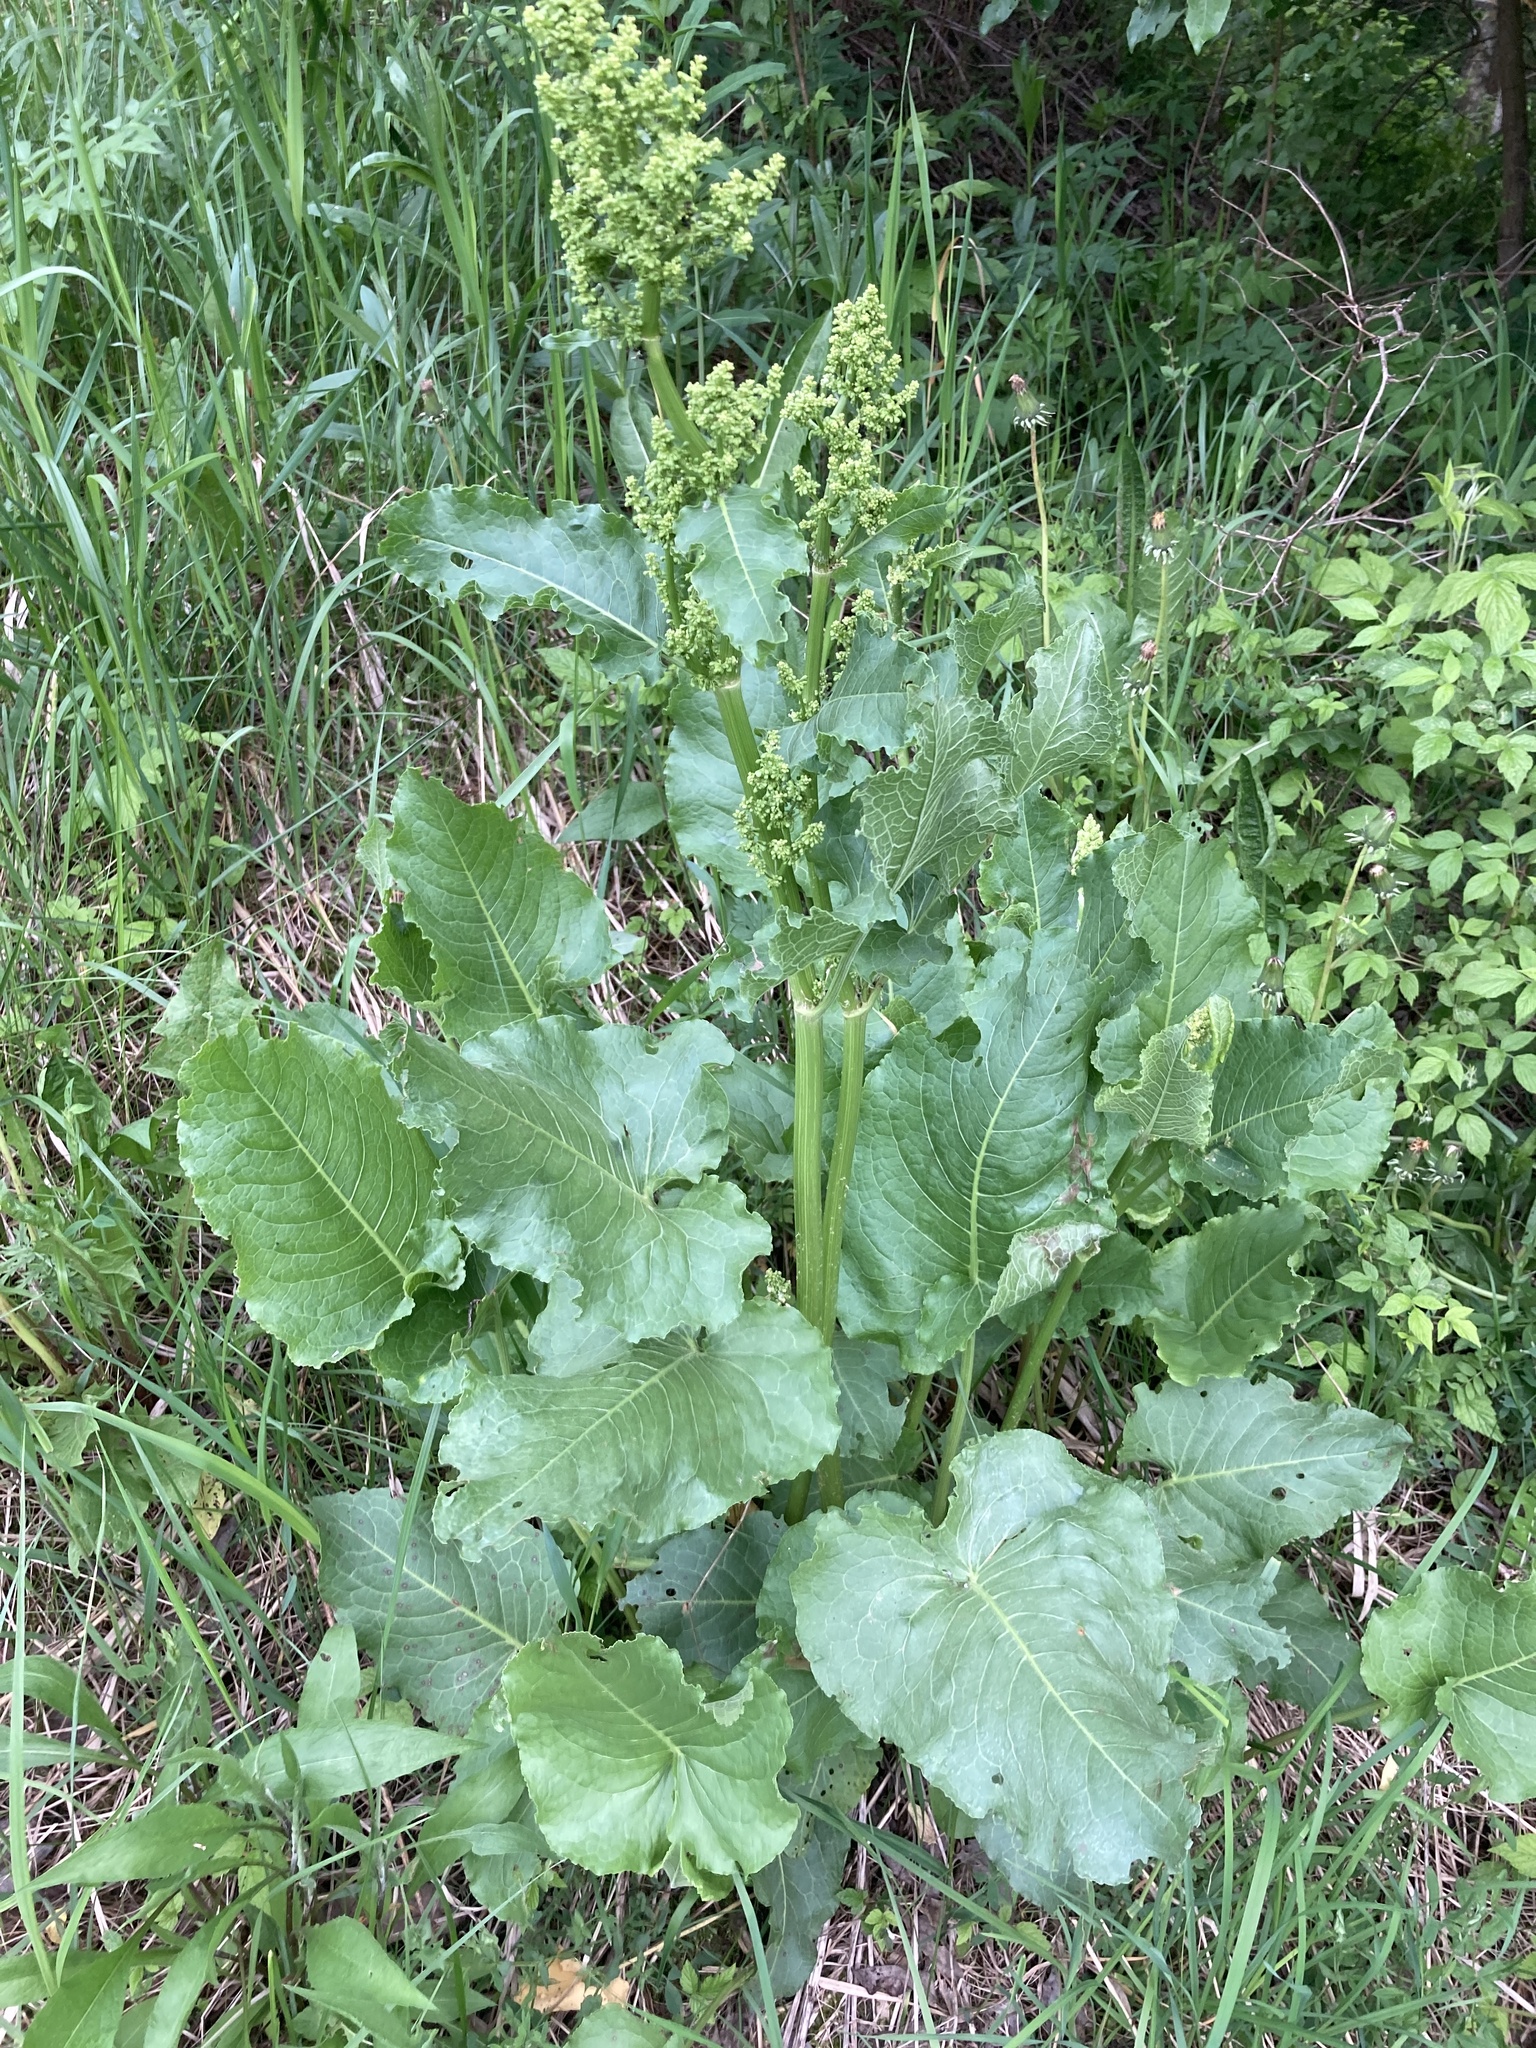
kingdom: Plantae
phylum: Tracheophyta
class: Magnoliopsida
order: Caryophyllales
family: Polygonaceae
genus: Rumex
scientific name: Rumex confertus
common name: Russian dock
